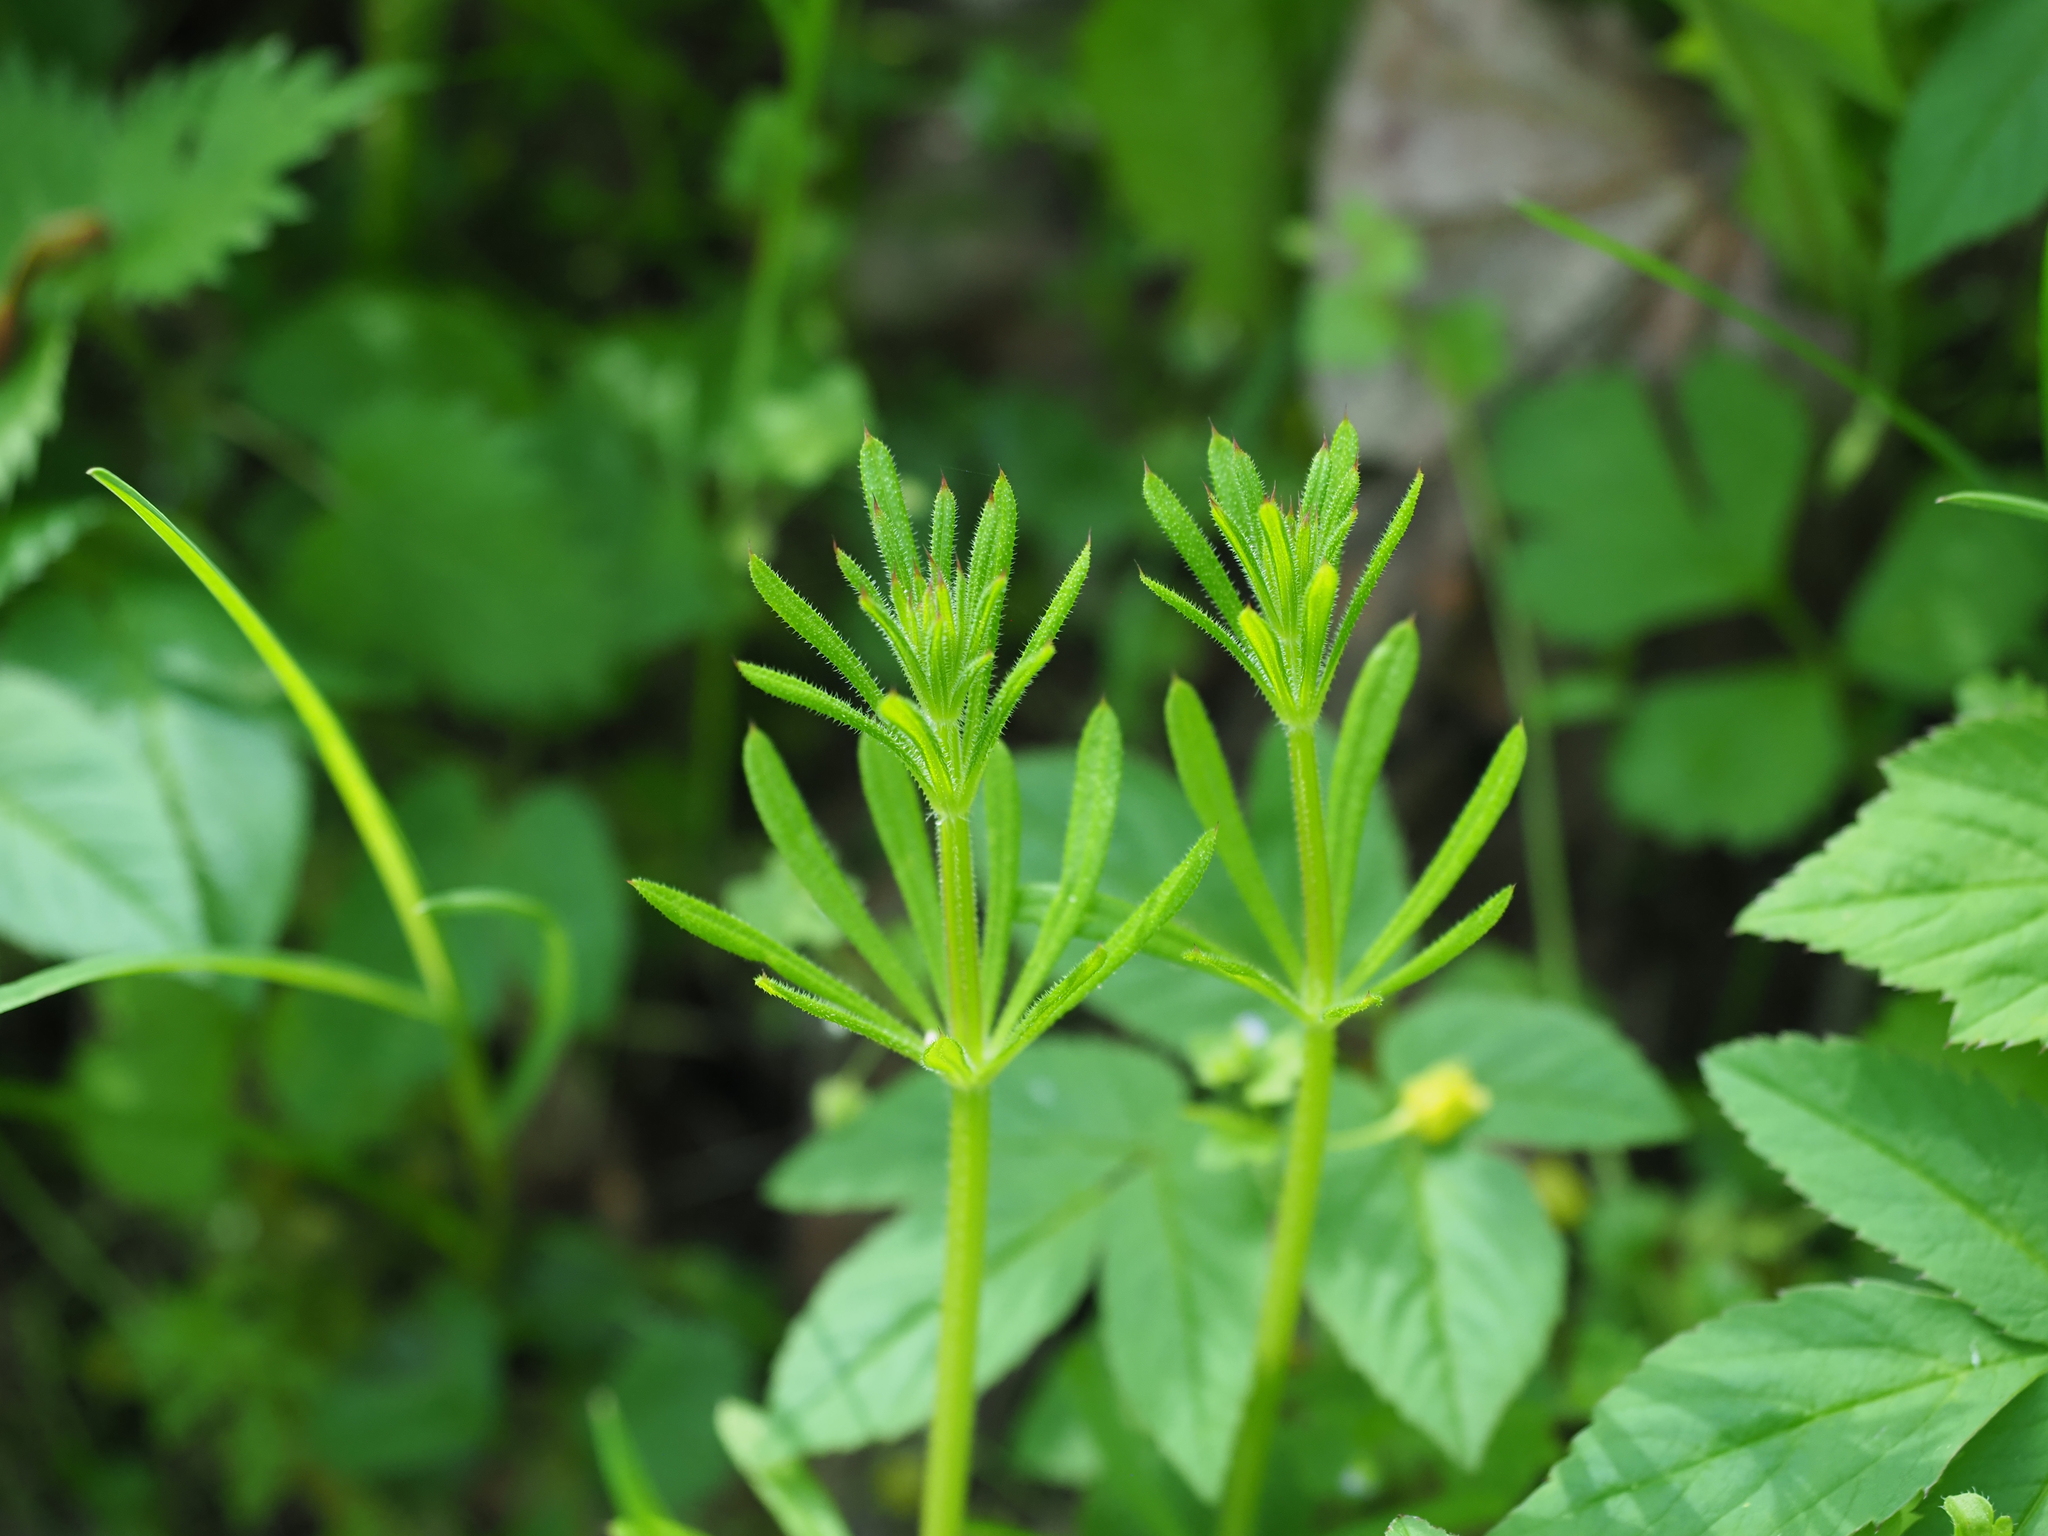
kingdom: Plantae
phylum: Tracheophyta
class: Magnoliopsida
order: Gentianales
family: Rubiaceae
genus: Galium
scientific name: Galium aparine
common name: Cleavers
